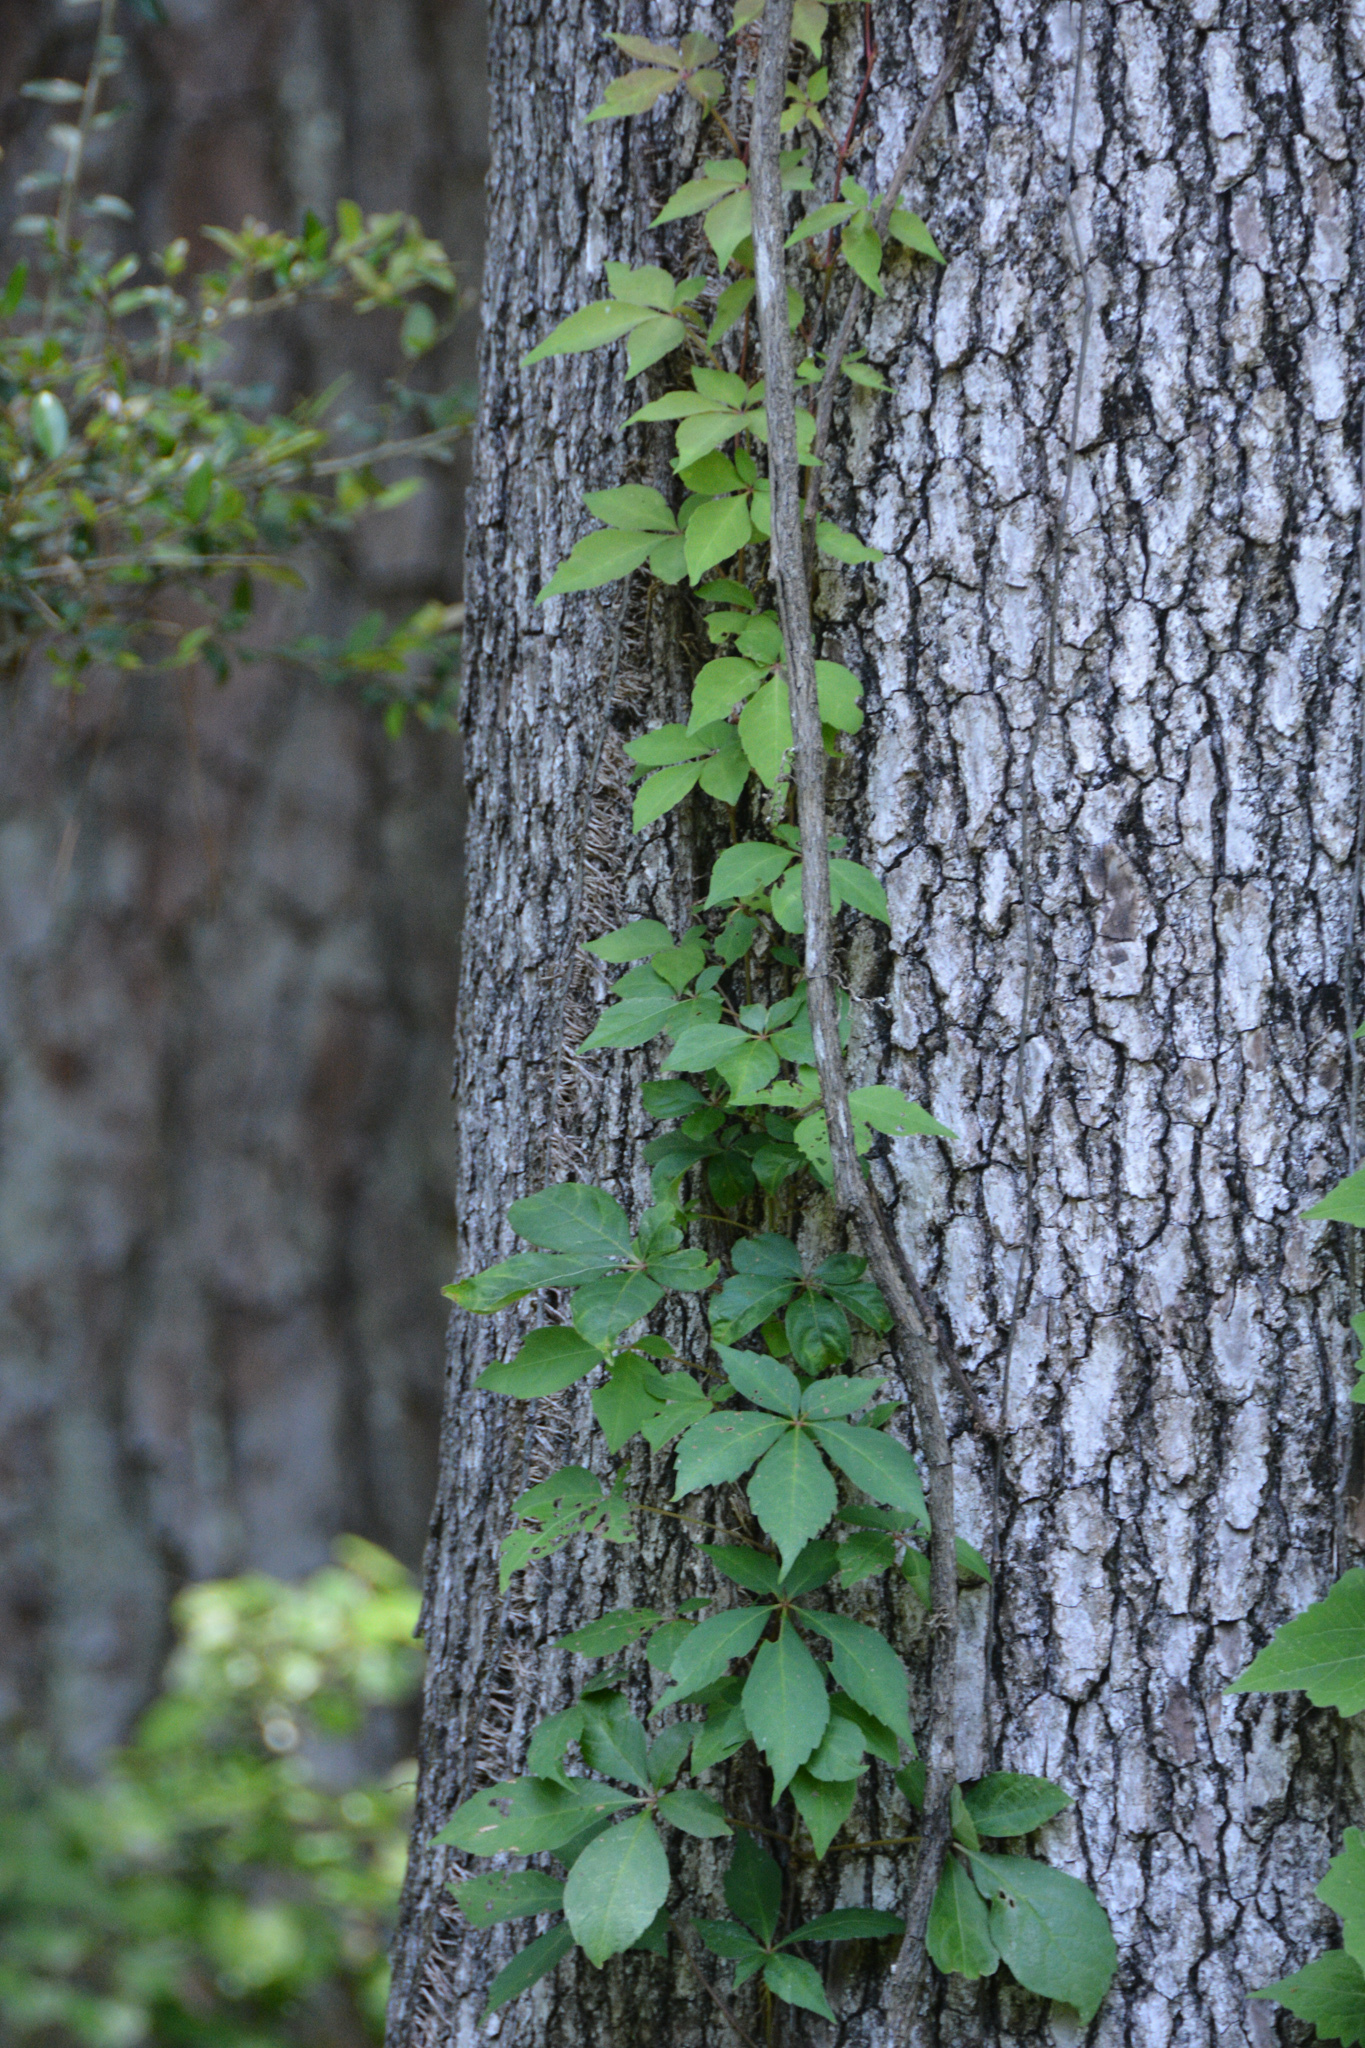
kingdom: Plantae
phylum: Tracheophyta
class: Magnoliopsida
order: Vitales
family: Vitaceae
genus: Parthenocissus
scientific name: Parthenocissus quinquefolia
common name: Virginia-creeper
